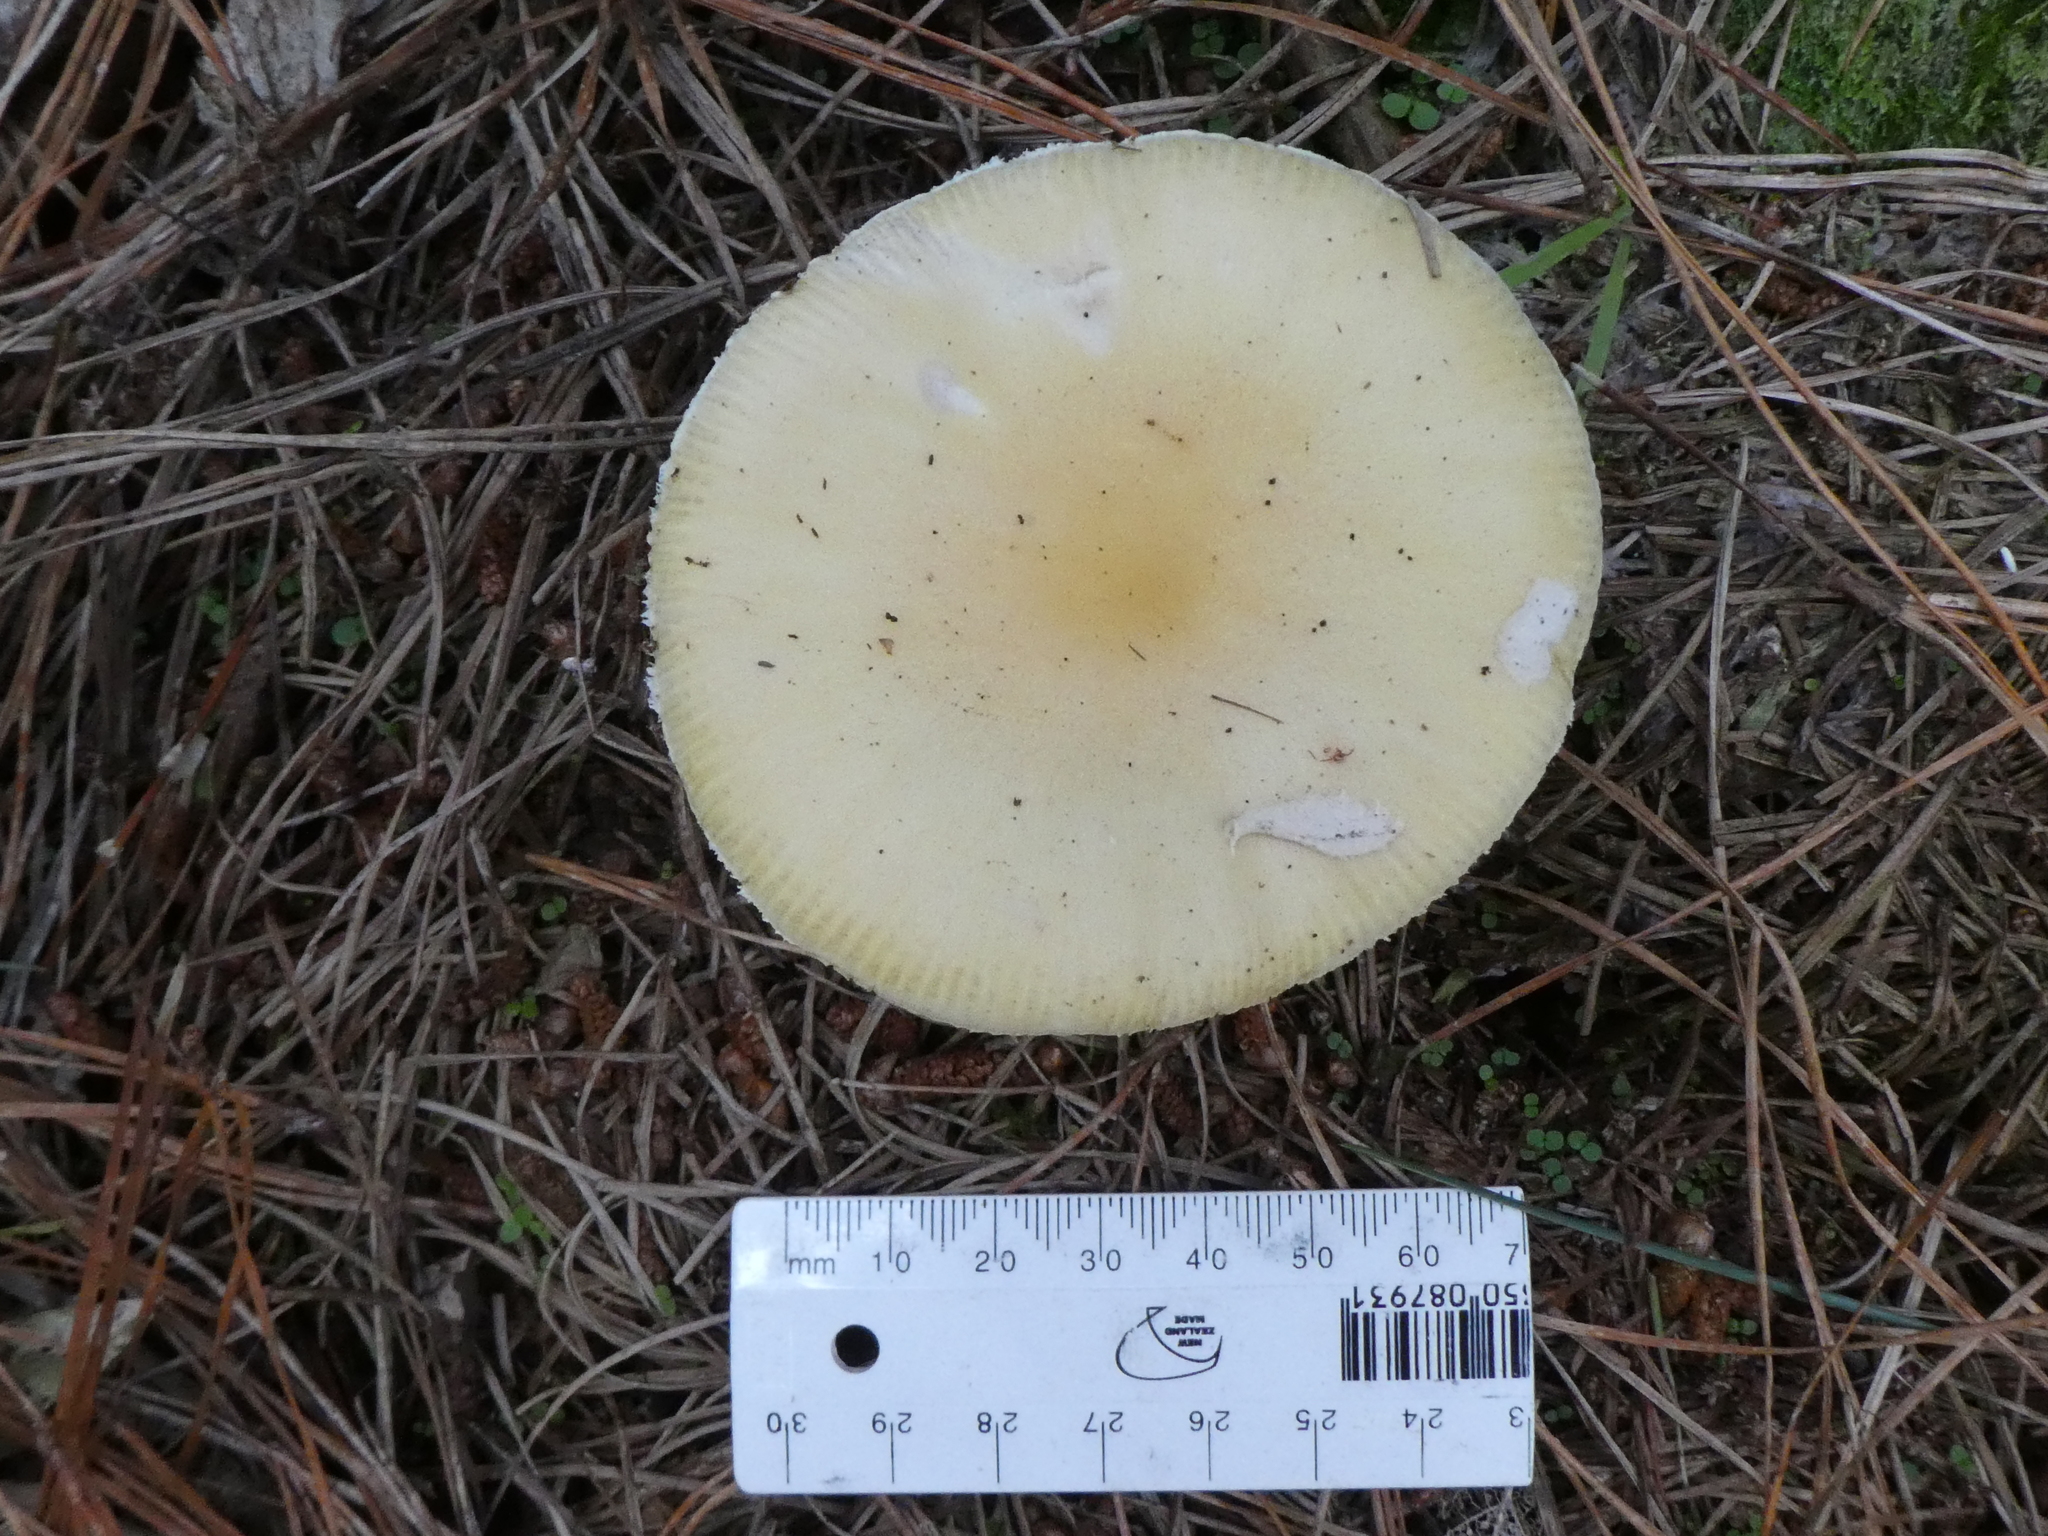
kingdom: Fungi
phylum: Basidiomycota
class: Agaricomycetes
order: Agaricales
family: Amanitaceae
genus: Amanita
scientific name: Amanita gemmata
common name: Jewelled amanita
